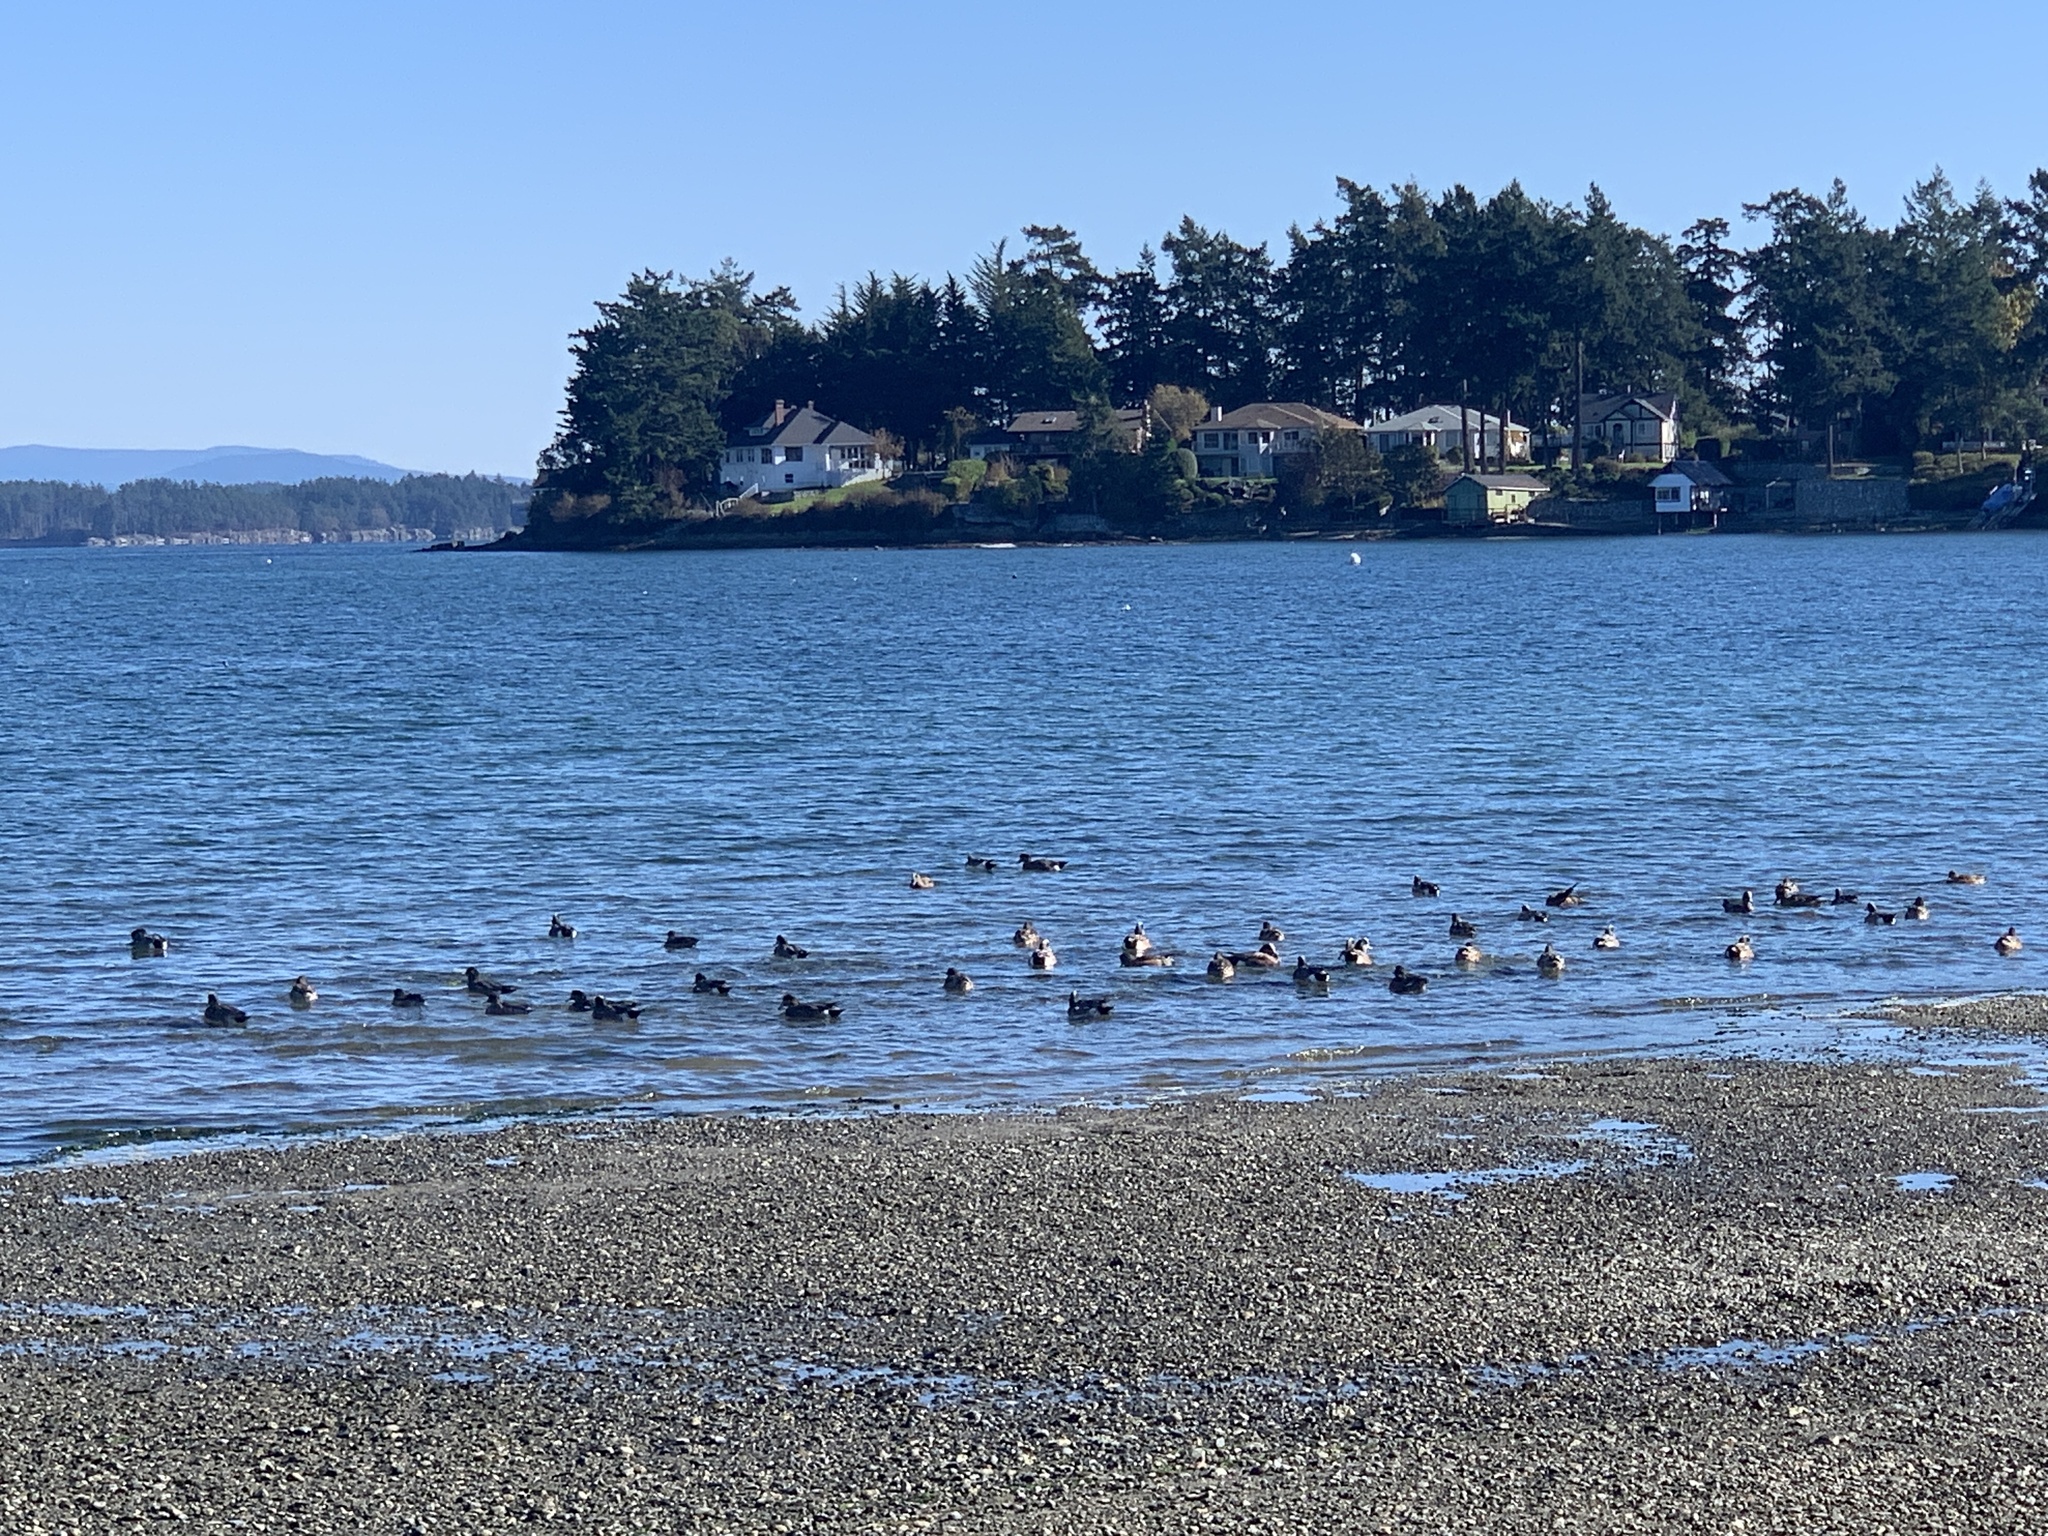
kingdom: Animalia
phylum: Chordata
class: Aves
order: Anseriformes
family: Anatidae
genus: Mareca
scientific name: Mareca americana
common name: American wigeon
